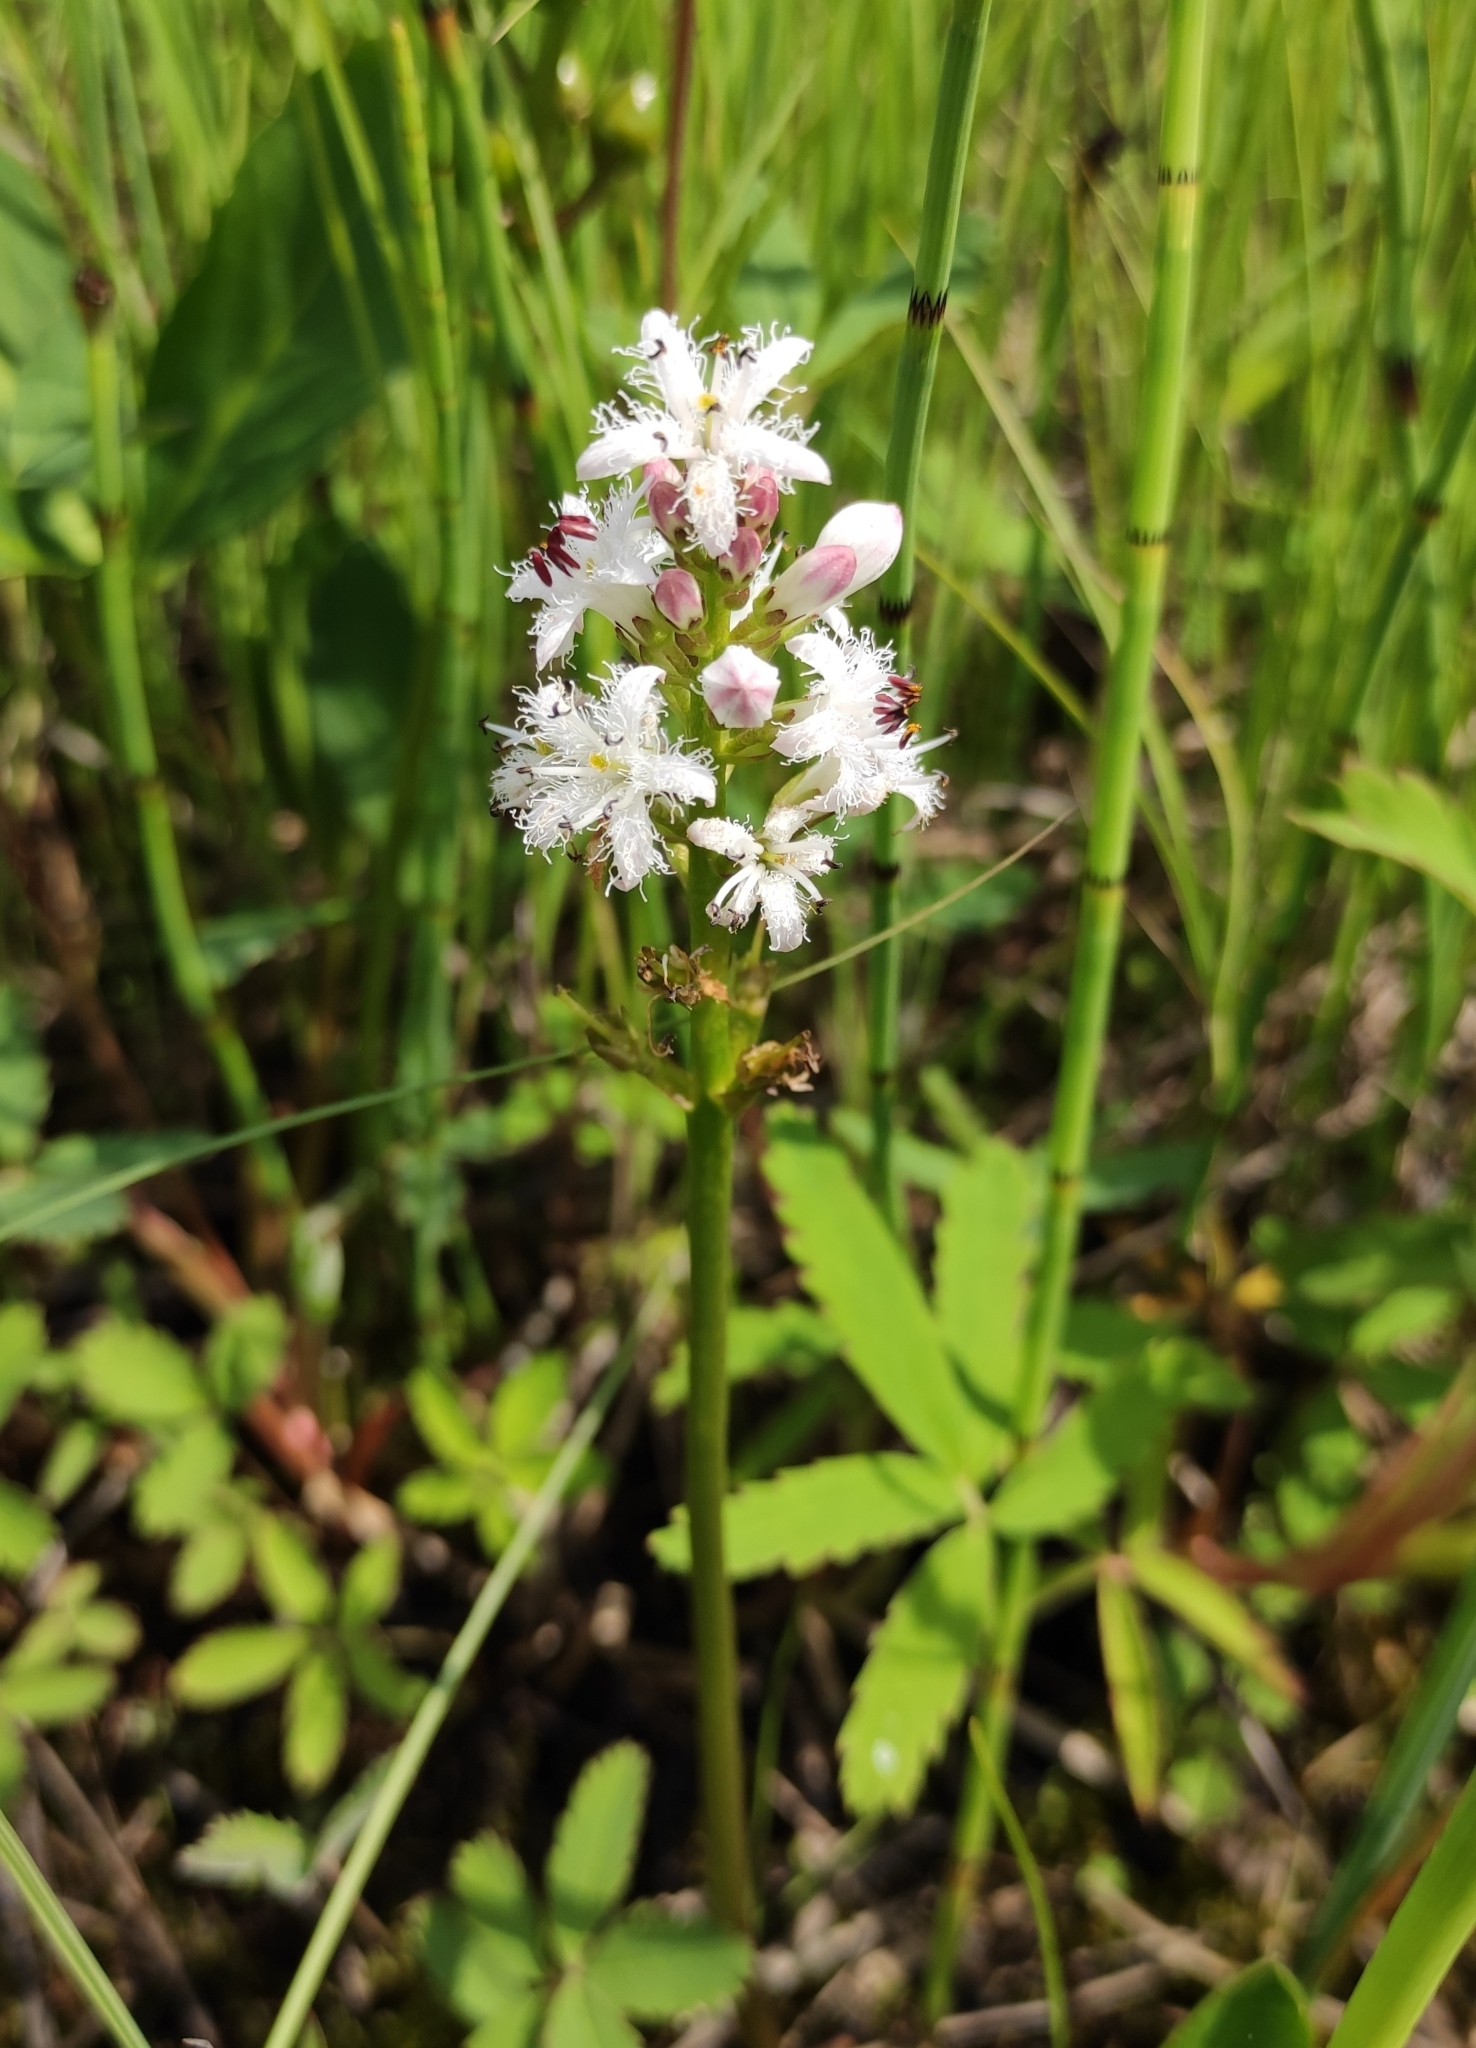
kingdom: Plantae
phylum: Tracheophyta
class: Magnoliopsida
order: Asterales
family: Menyanthaceae
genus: Menyanthes
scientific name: Menyanthes trifoliata
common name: Bogbean
